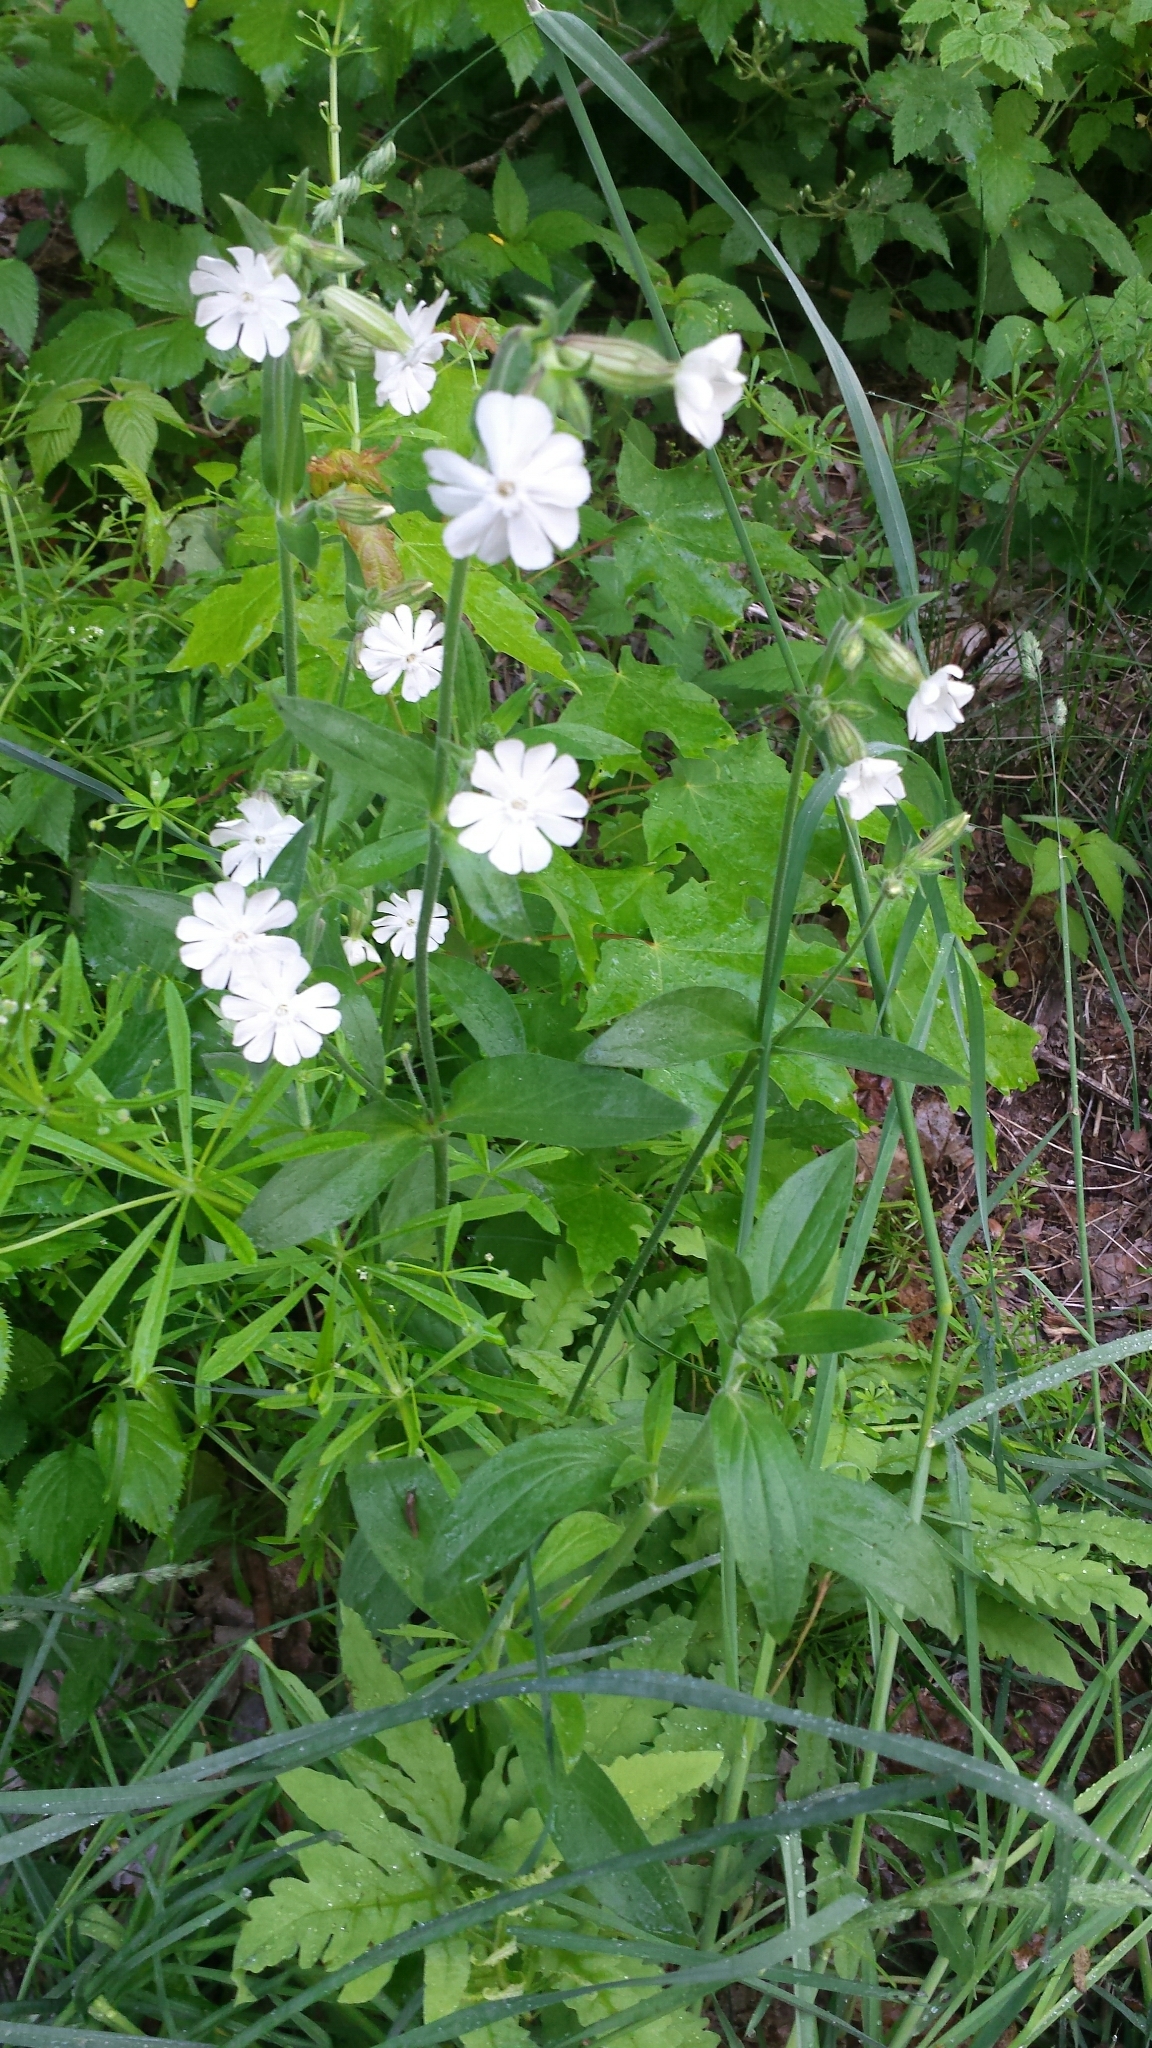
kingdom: Plantae
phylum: Tracheophyta
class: Magnoliopsida
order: Caryophyllales
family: Caryophyllaceae
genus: Silene
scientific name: Silene latifolia
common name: White campion
